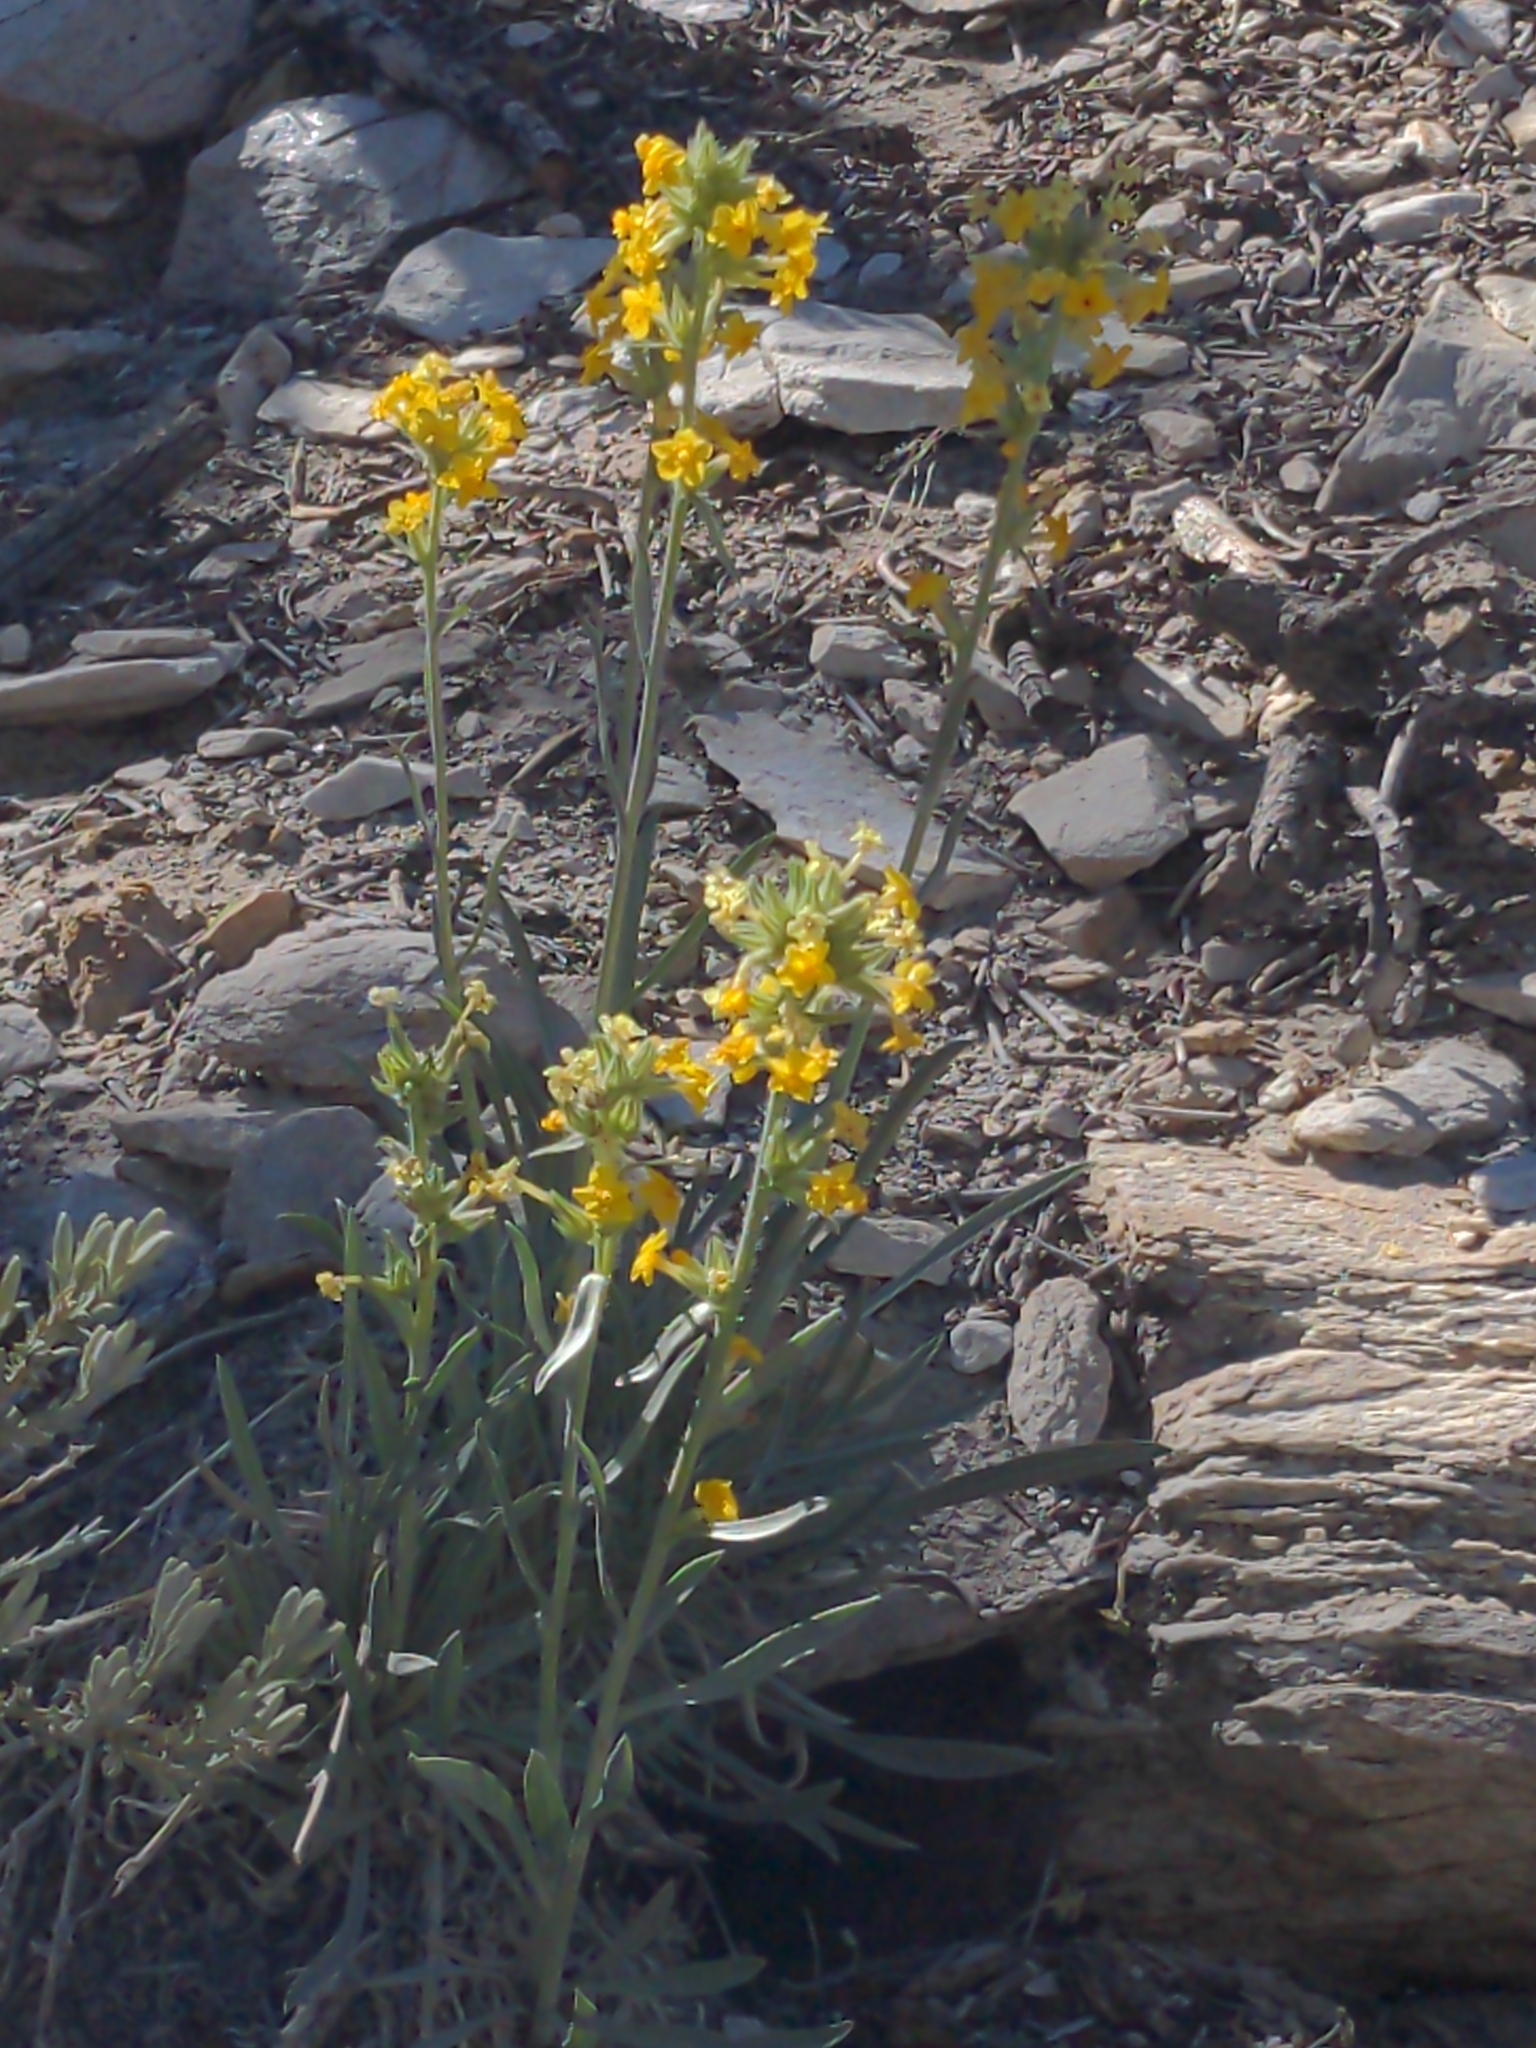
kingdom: Plantae
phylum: Tracheophyta
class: Magnoliopsida
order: Boraginales
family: Boraginaceae
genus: Oreocarya
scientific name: Oreocarya confertiflora
